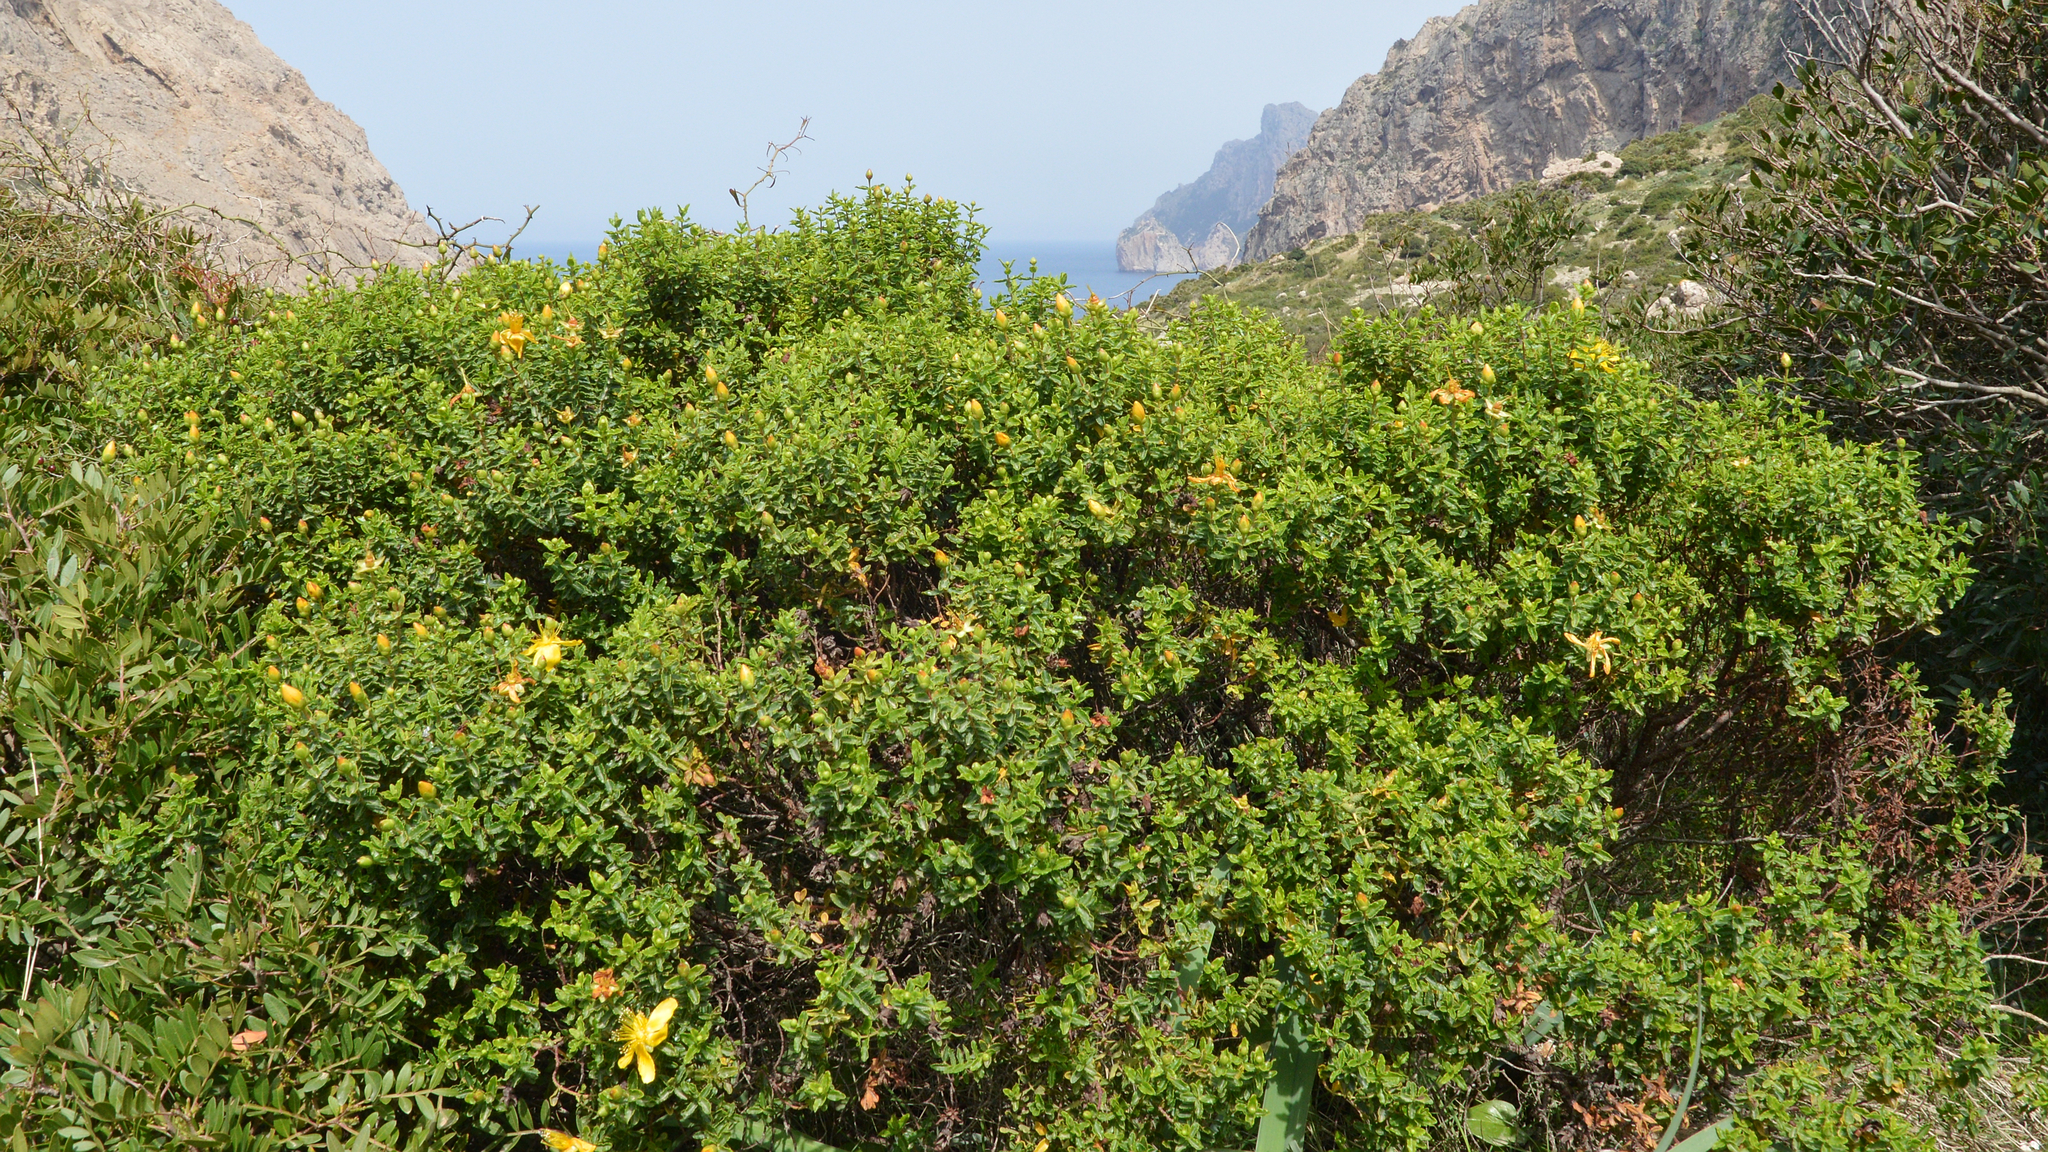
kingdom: Plantae
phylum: Tracheophyta
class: Magnoliopsida
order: Malpighiales
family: Hypericaceae
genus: Hypericum
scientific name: Hypericum balearicum
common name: Majorca st john's wort
